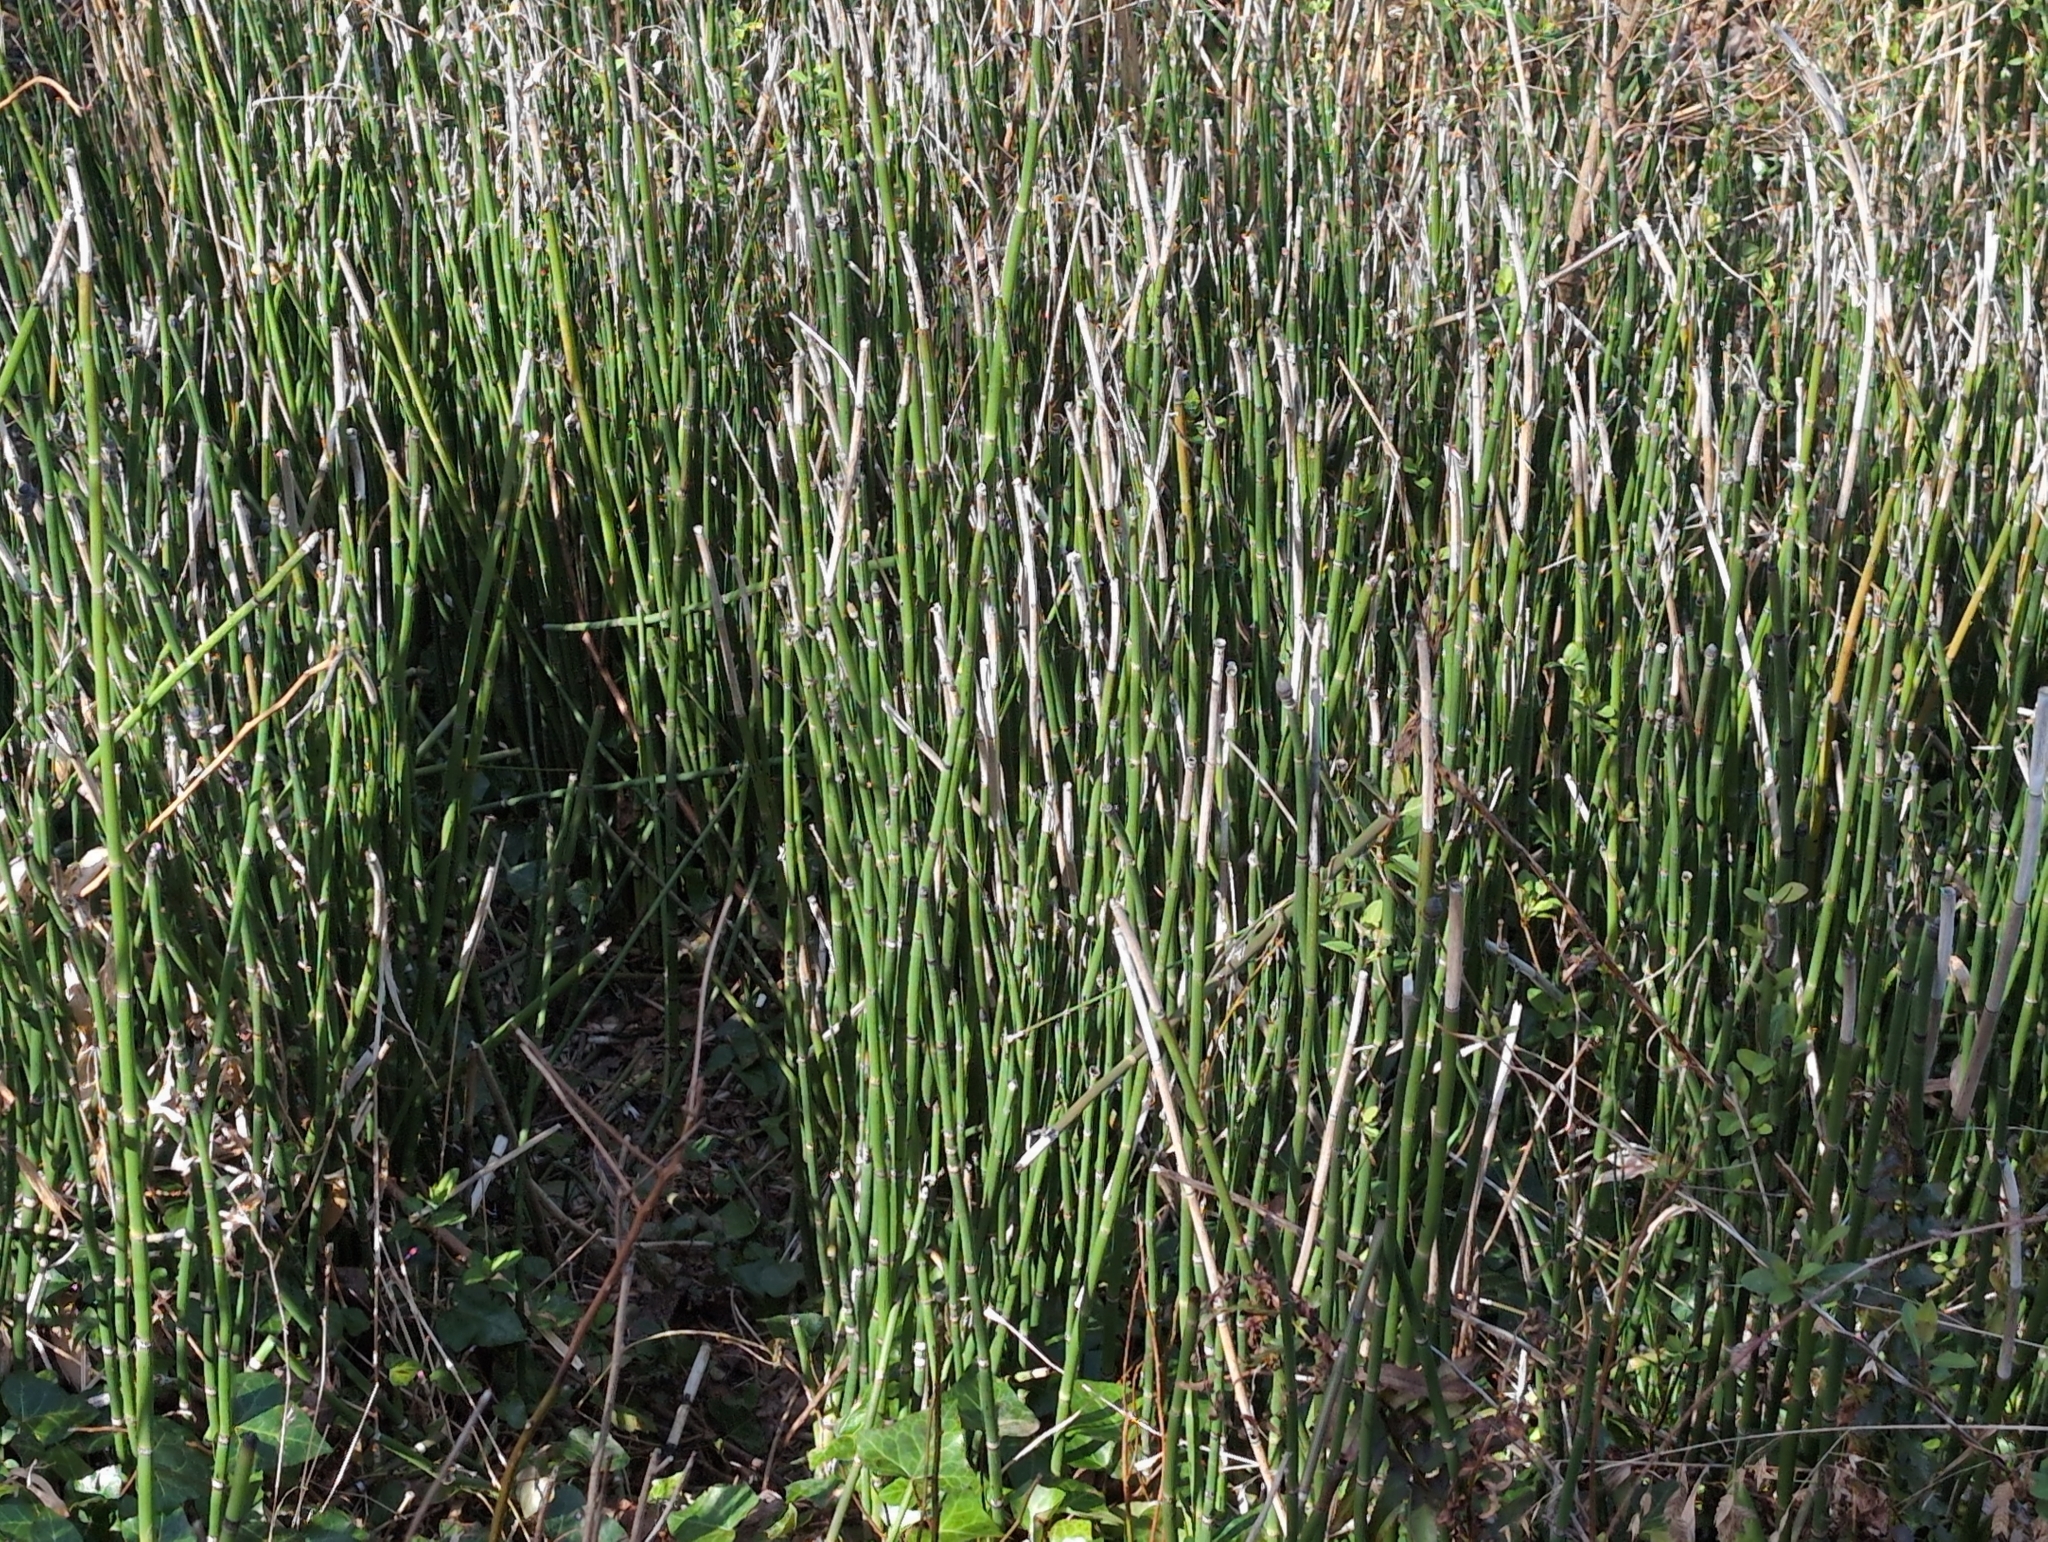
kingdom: Plantae
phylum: Tracheophyta
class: Polypodiopsida
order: Equisetales
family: Equisetaceae
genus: Equisetum
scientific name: Equisetum hyemale
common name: Rough horsetail
